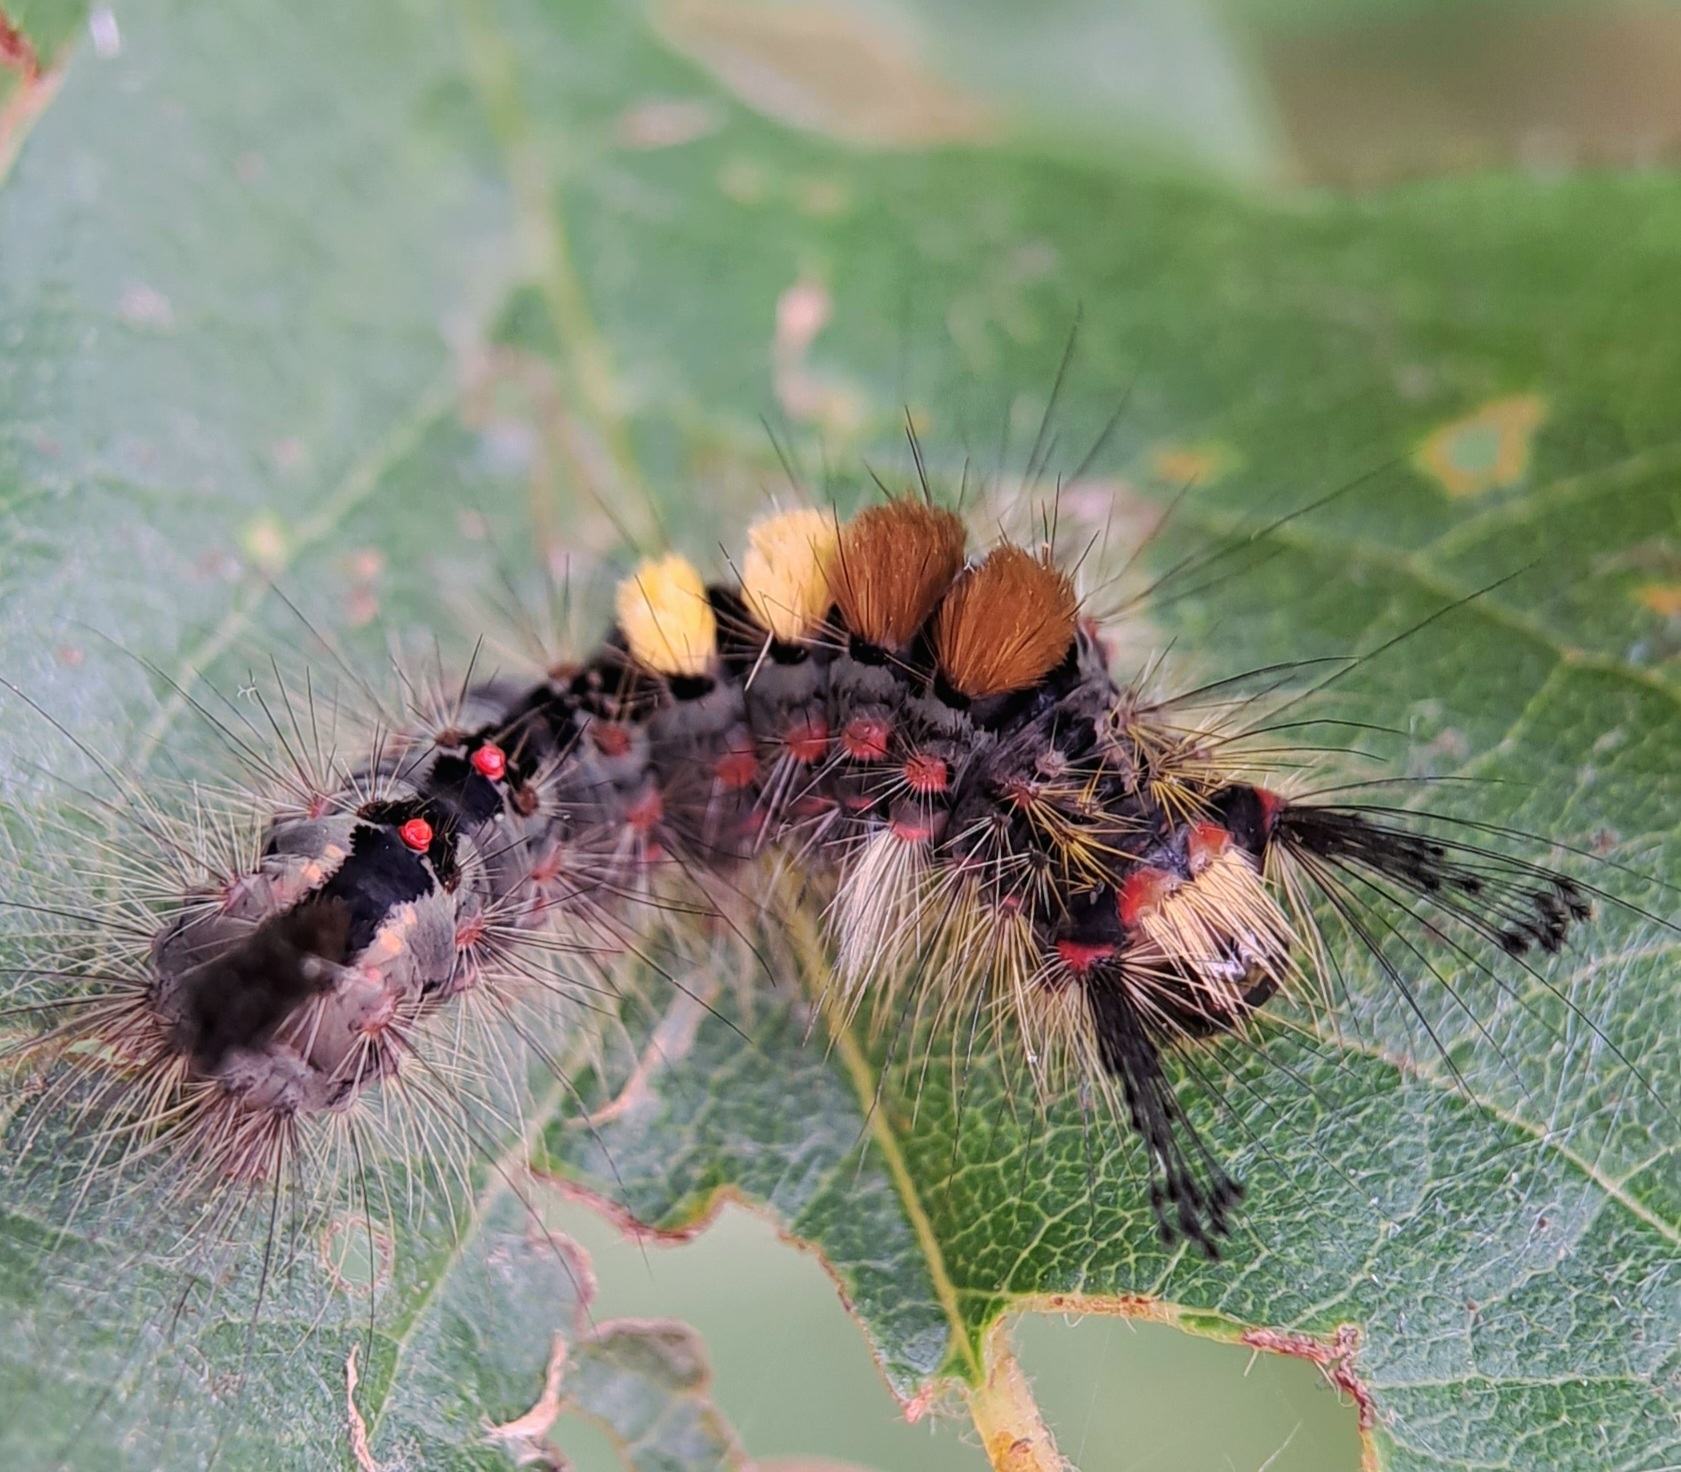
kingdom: Animalia
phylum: Arthropoda
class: Insecta
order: Lepidoptera
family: Erebidae
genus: Orgyia
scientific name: Orgyia antiqua
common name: Vapourer
